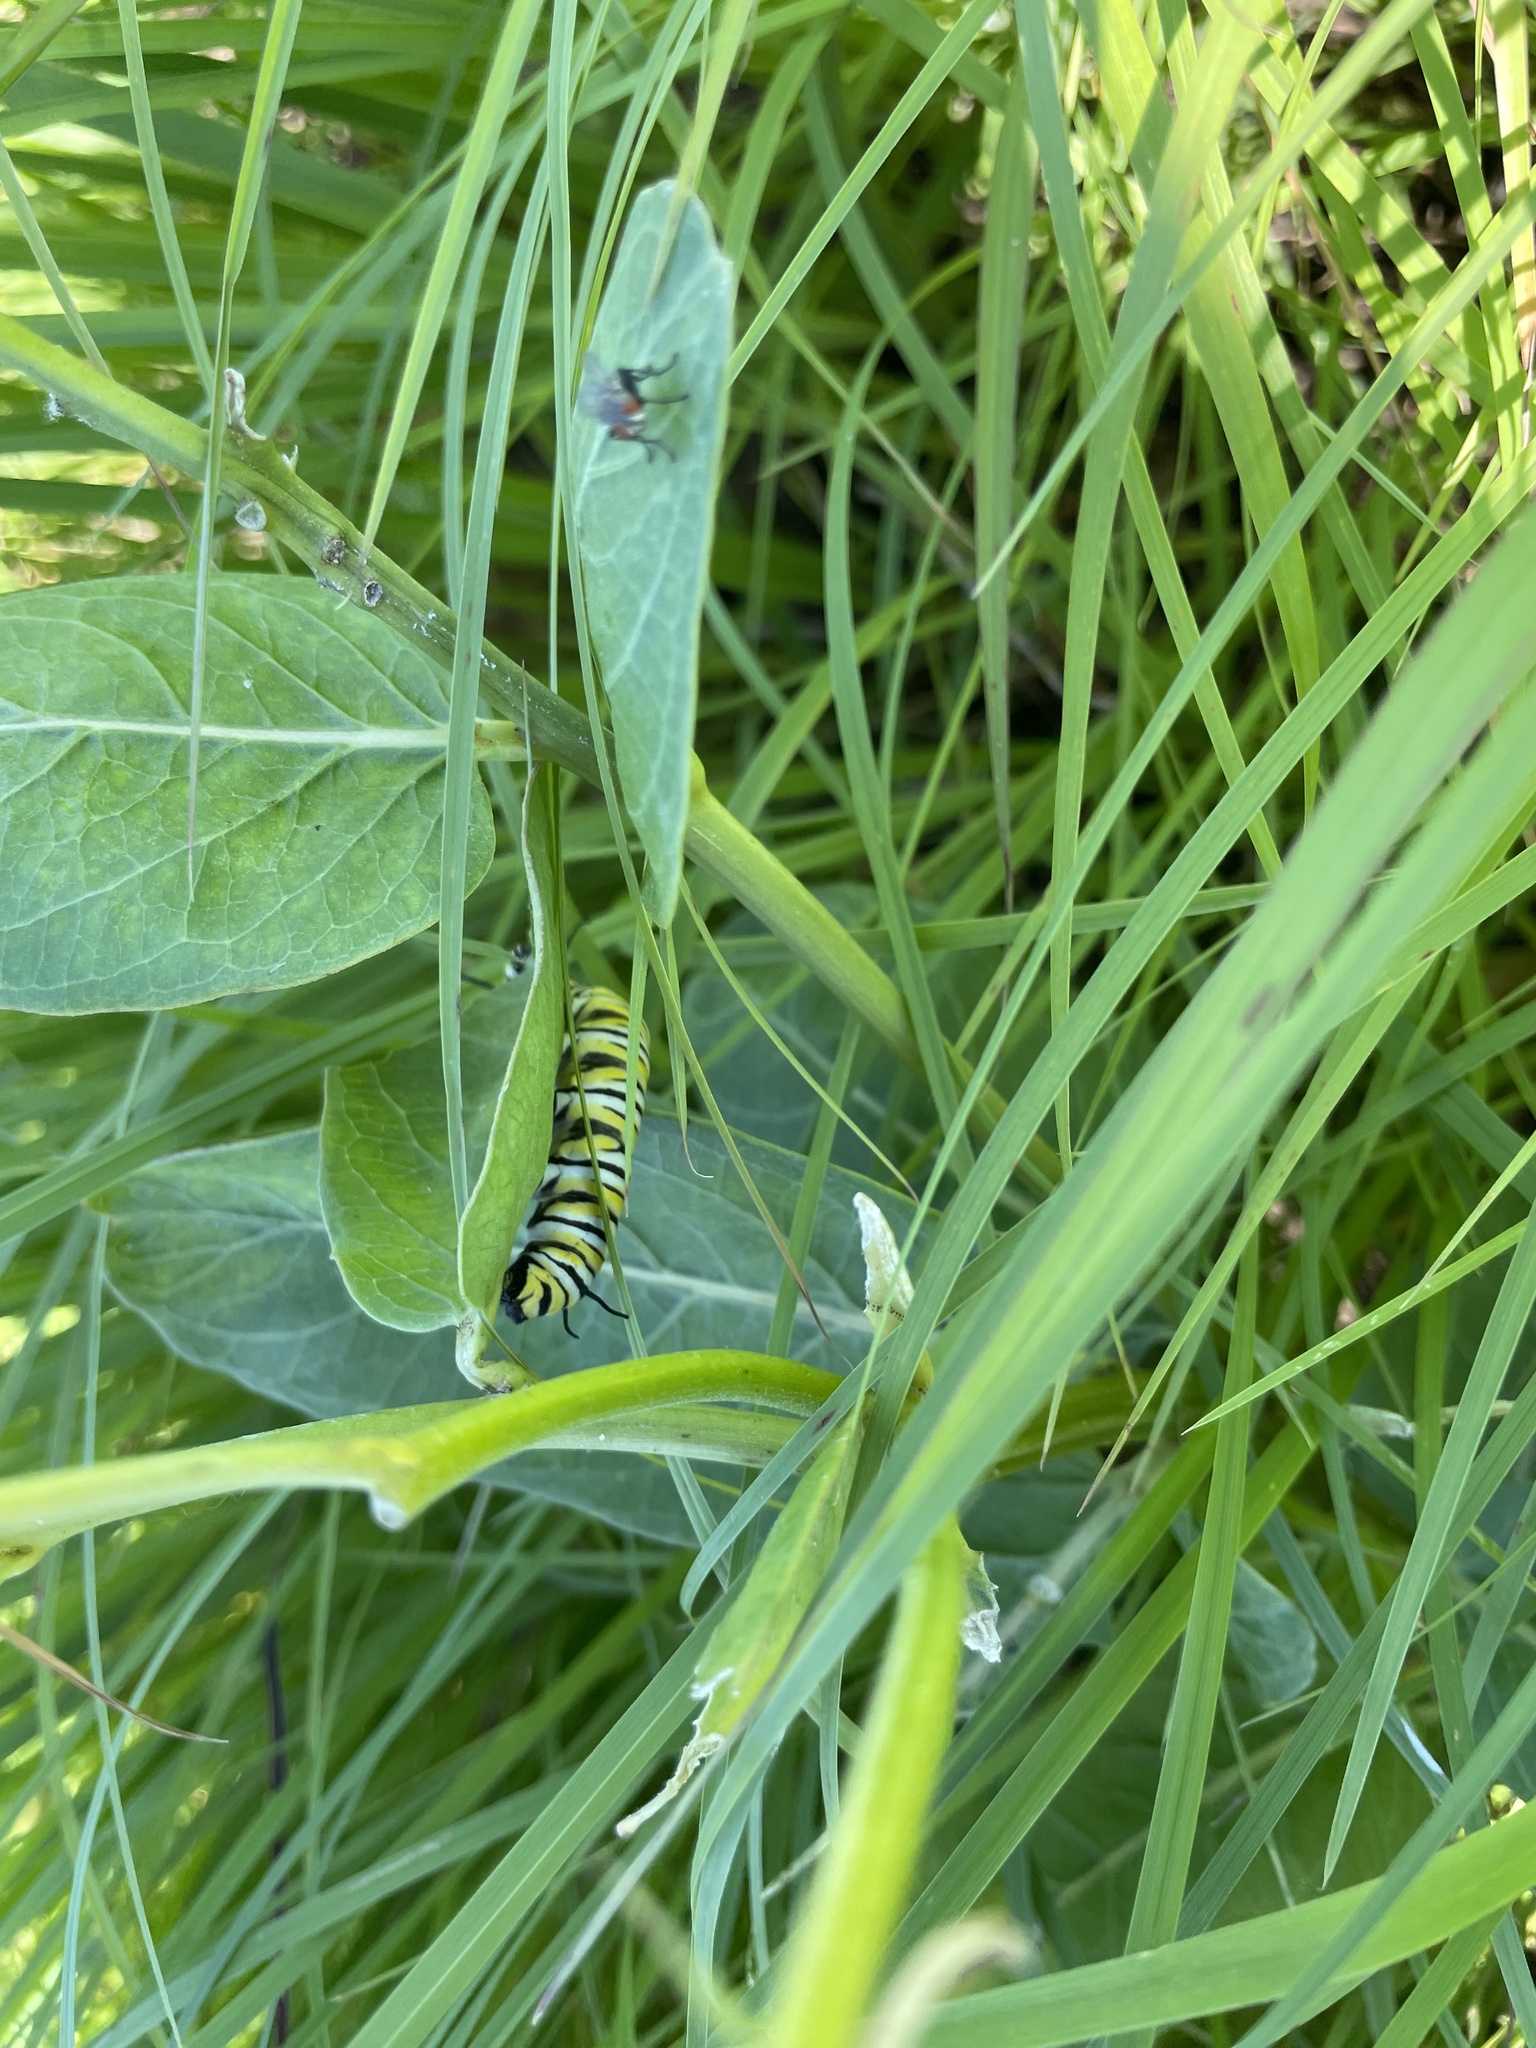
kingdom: Animalia
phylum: Arthropoda
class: Insecta
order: Lepidoptera
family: Nymphalidae
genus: Danaus
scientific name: Danaus plexippus
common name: Monarch
